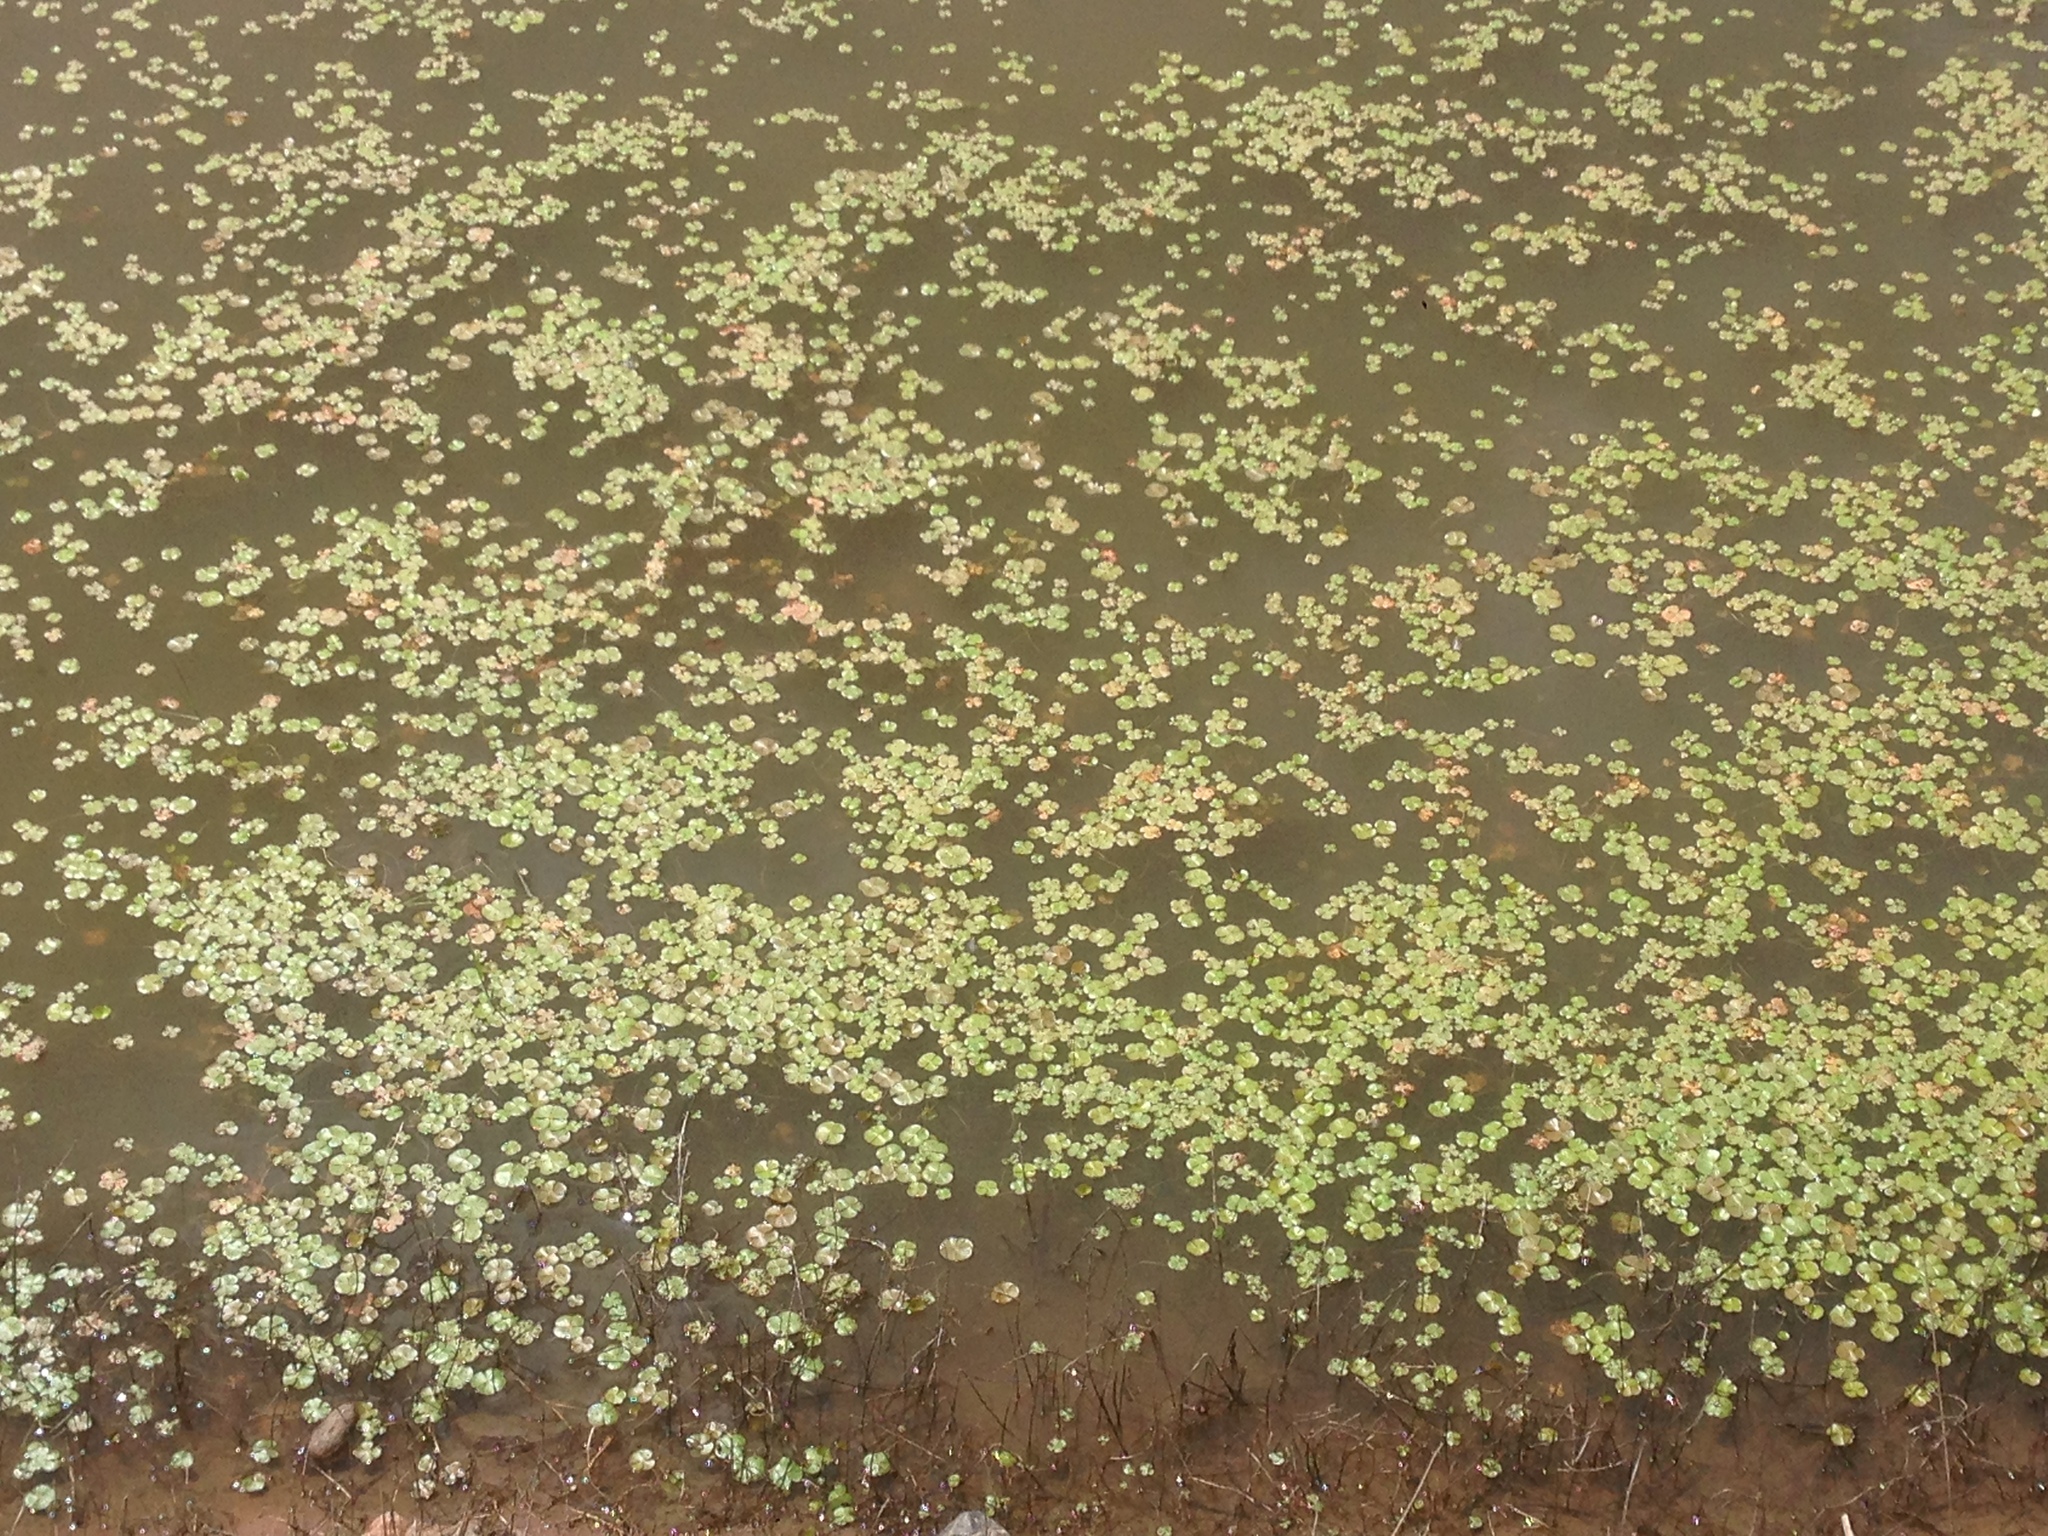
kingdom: Plantae
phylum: Tracheophyta
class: Polypodiopsida
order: Salviniales
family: Marsileaceae
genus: Marsilea
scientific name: Marsilea vestita
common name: Hooked-pepperwort
